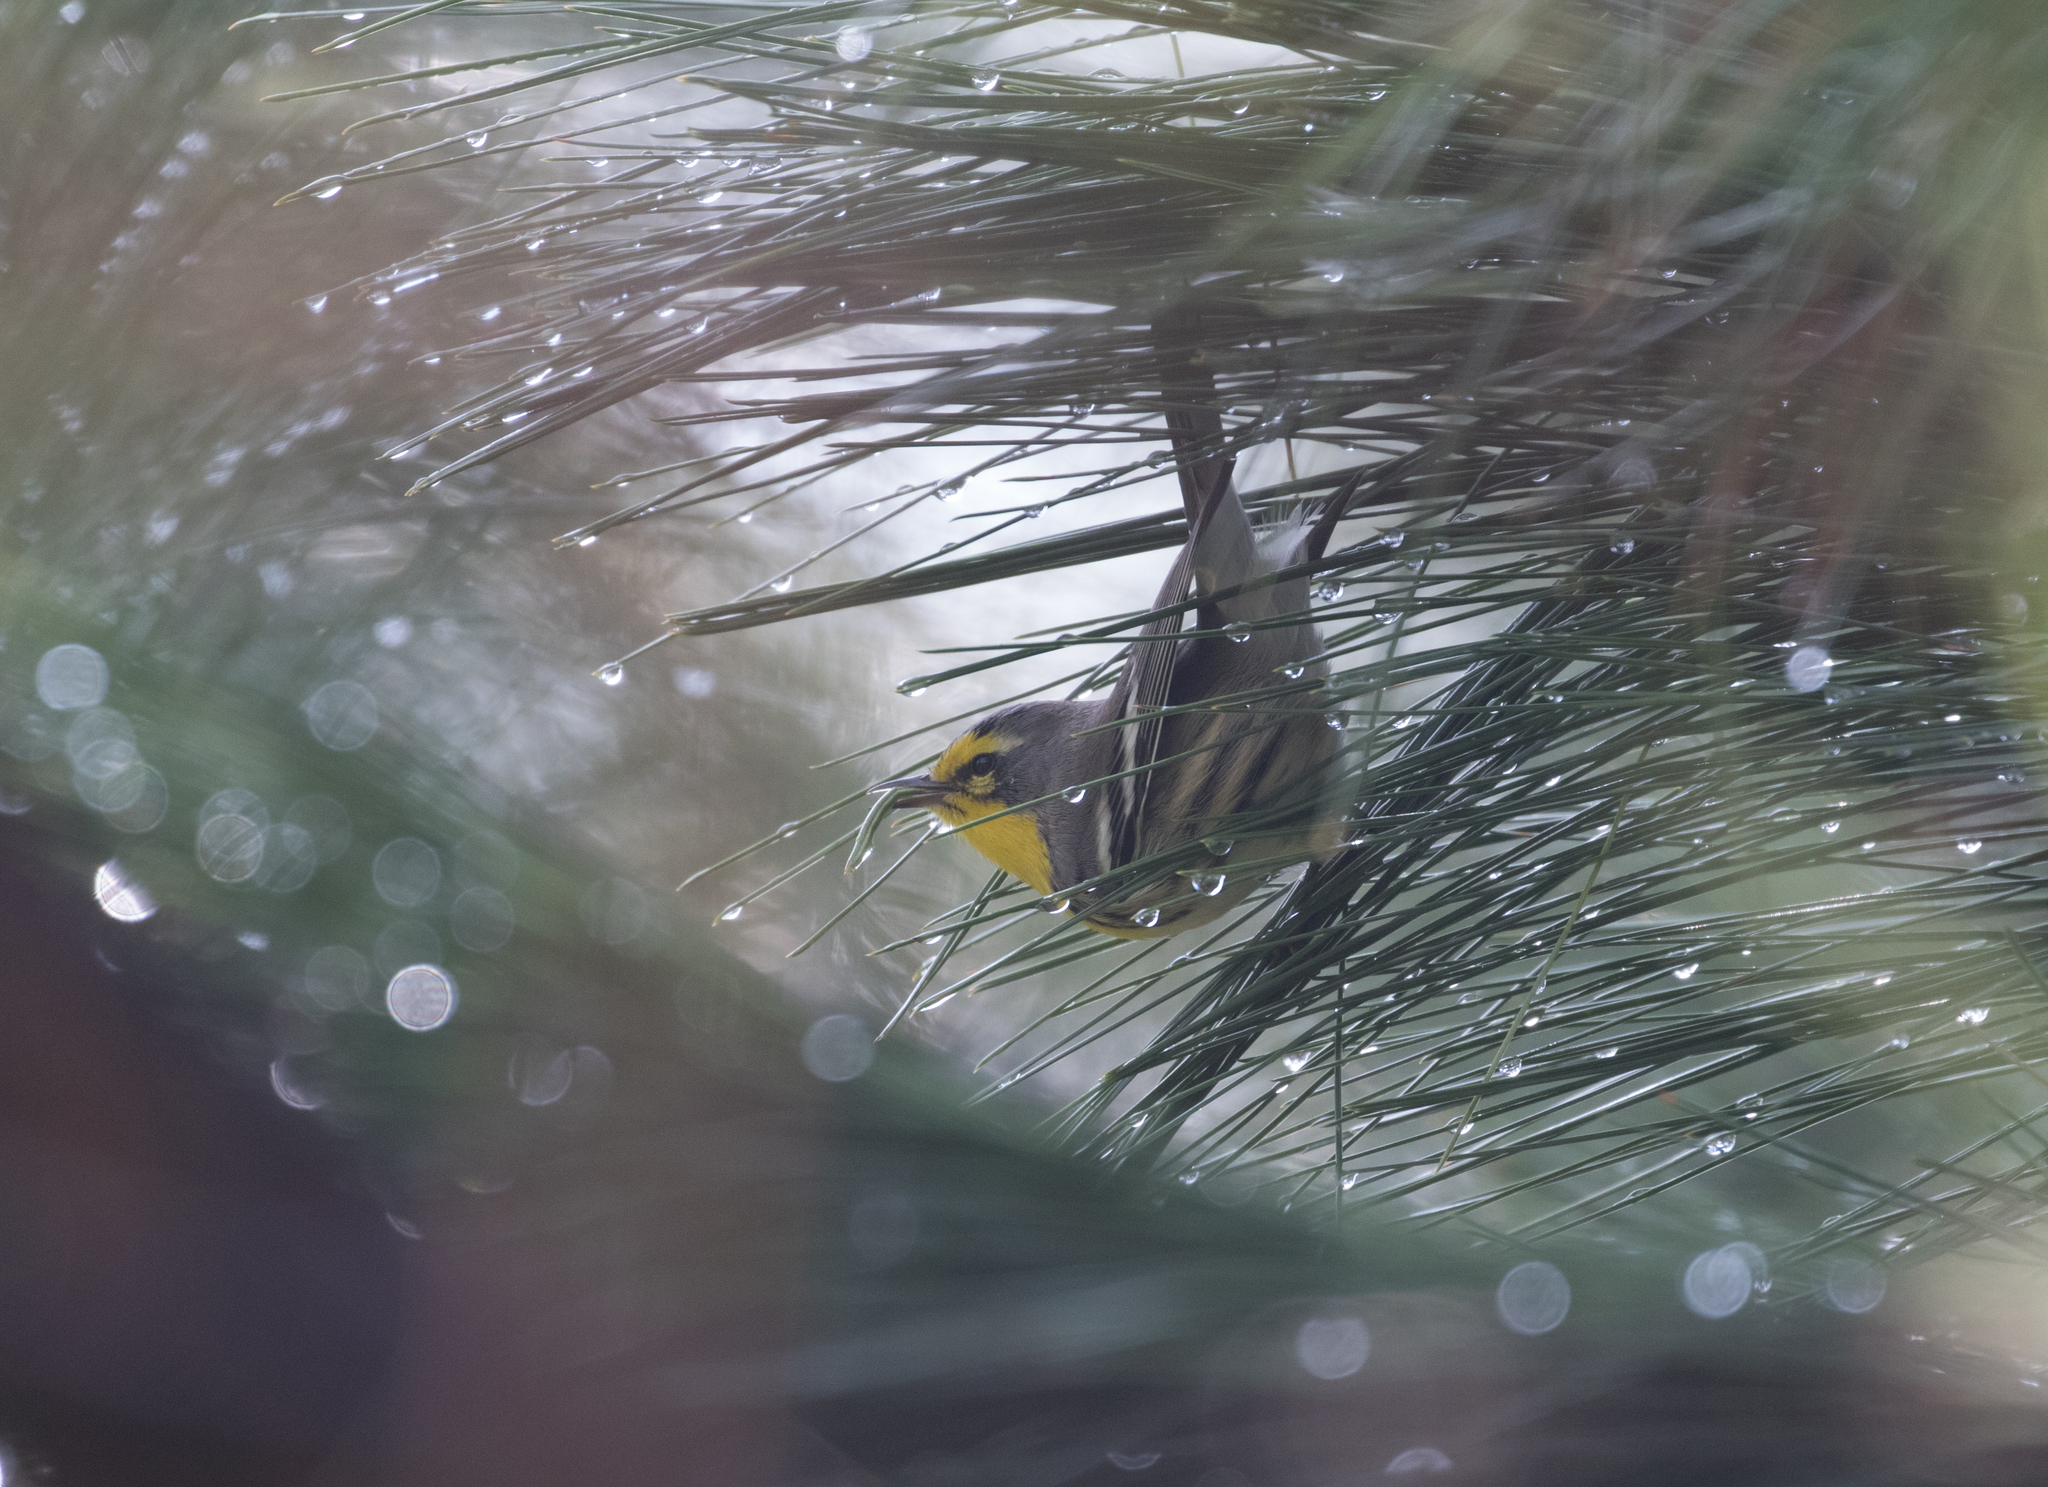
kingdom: Animalia
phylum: Chordata
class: Aves
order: Passeriformes
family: Parulidae
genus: Setophaga
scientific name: Setophaga graciae
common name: Grace's warbler
